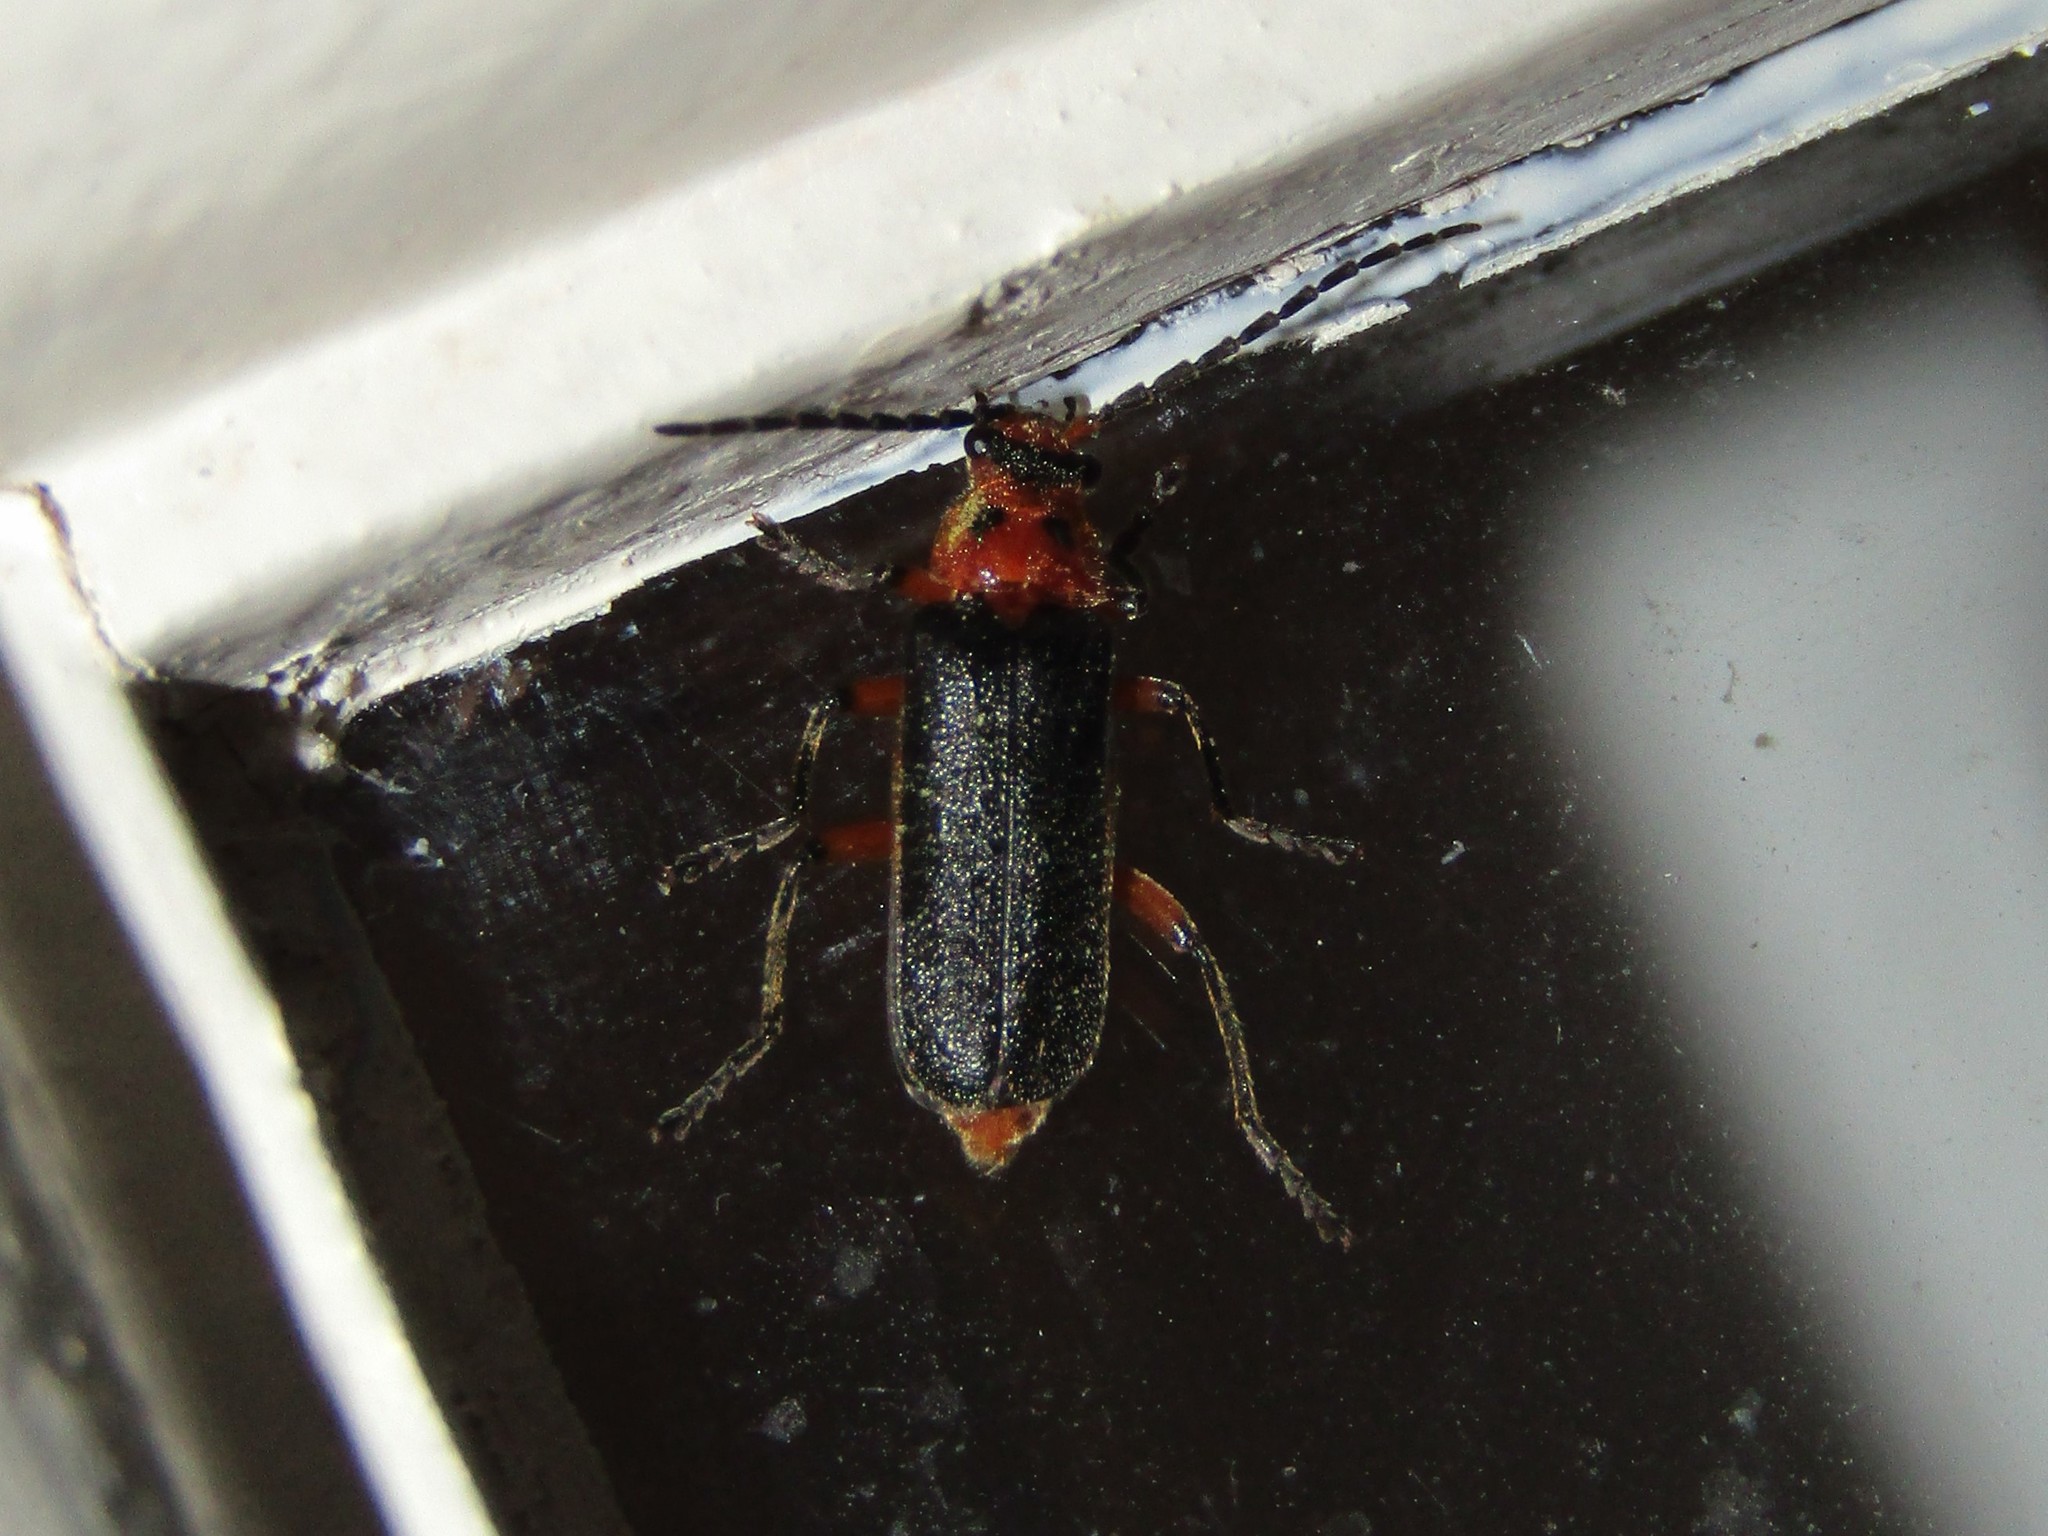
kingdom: Animalia
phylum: Arthropoda
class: Insecta
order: Coleoptera
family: Cantharidae
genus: Atalantycha
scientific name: Atalantycha bilineata
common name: Two-lined leatherwing
